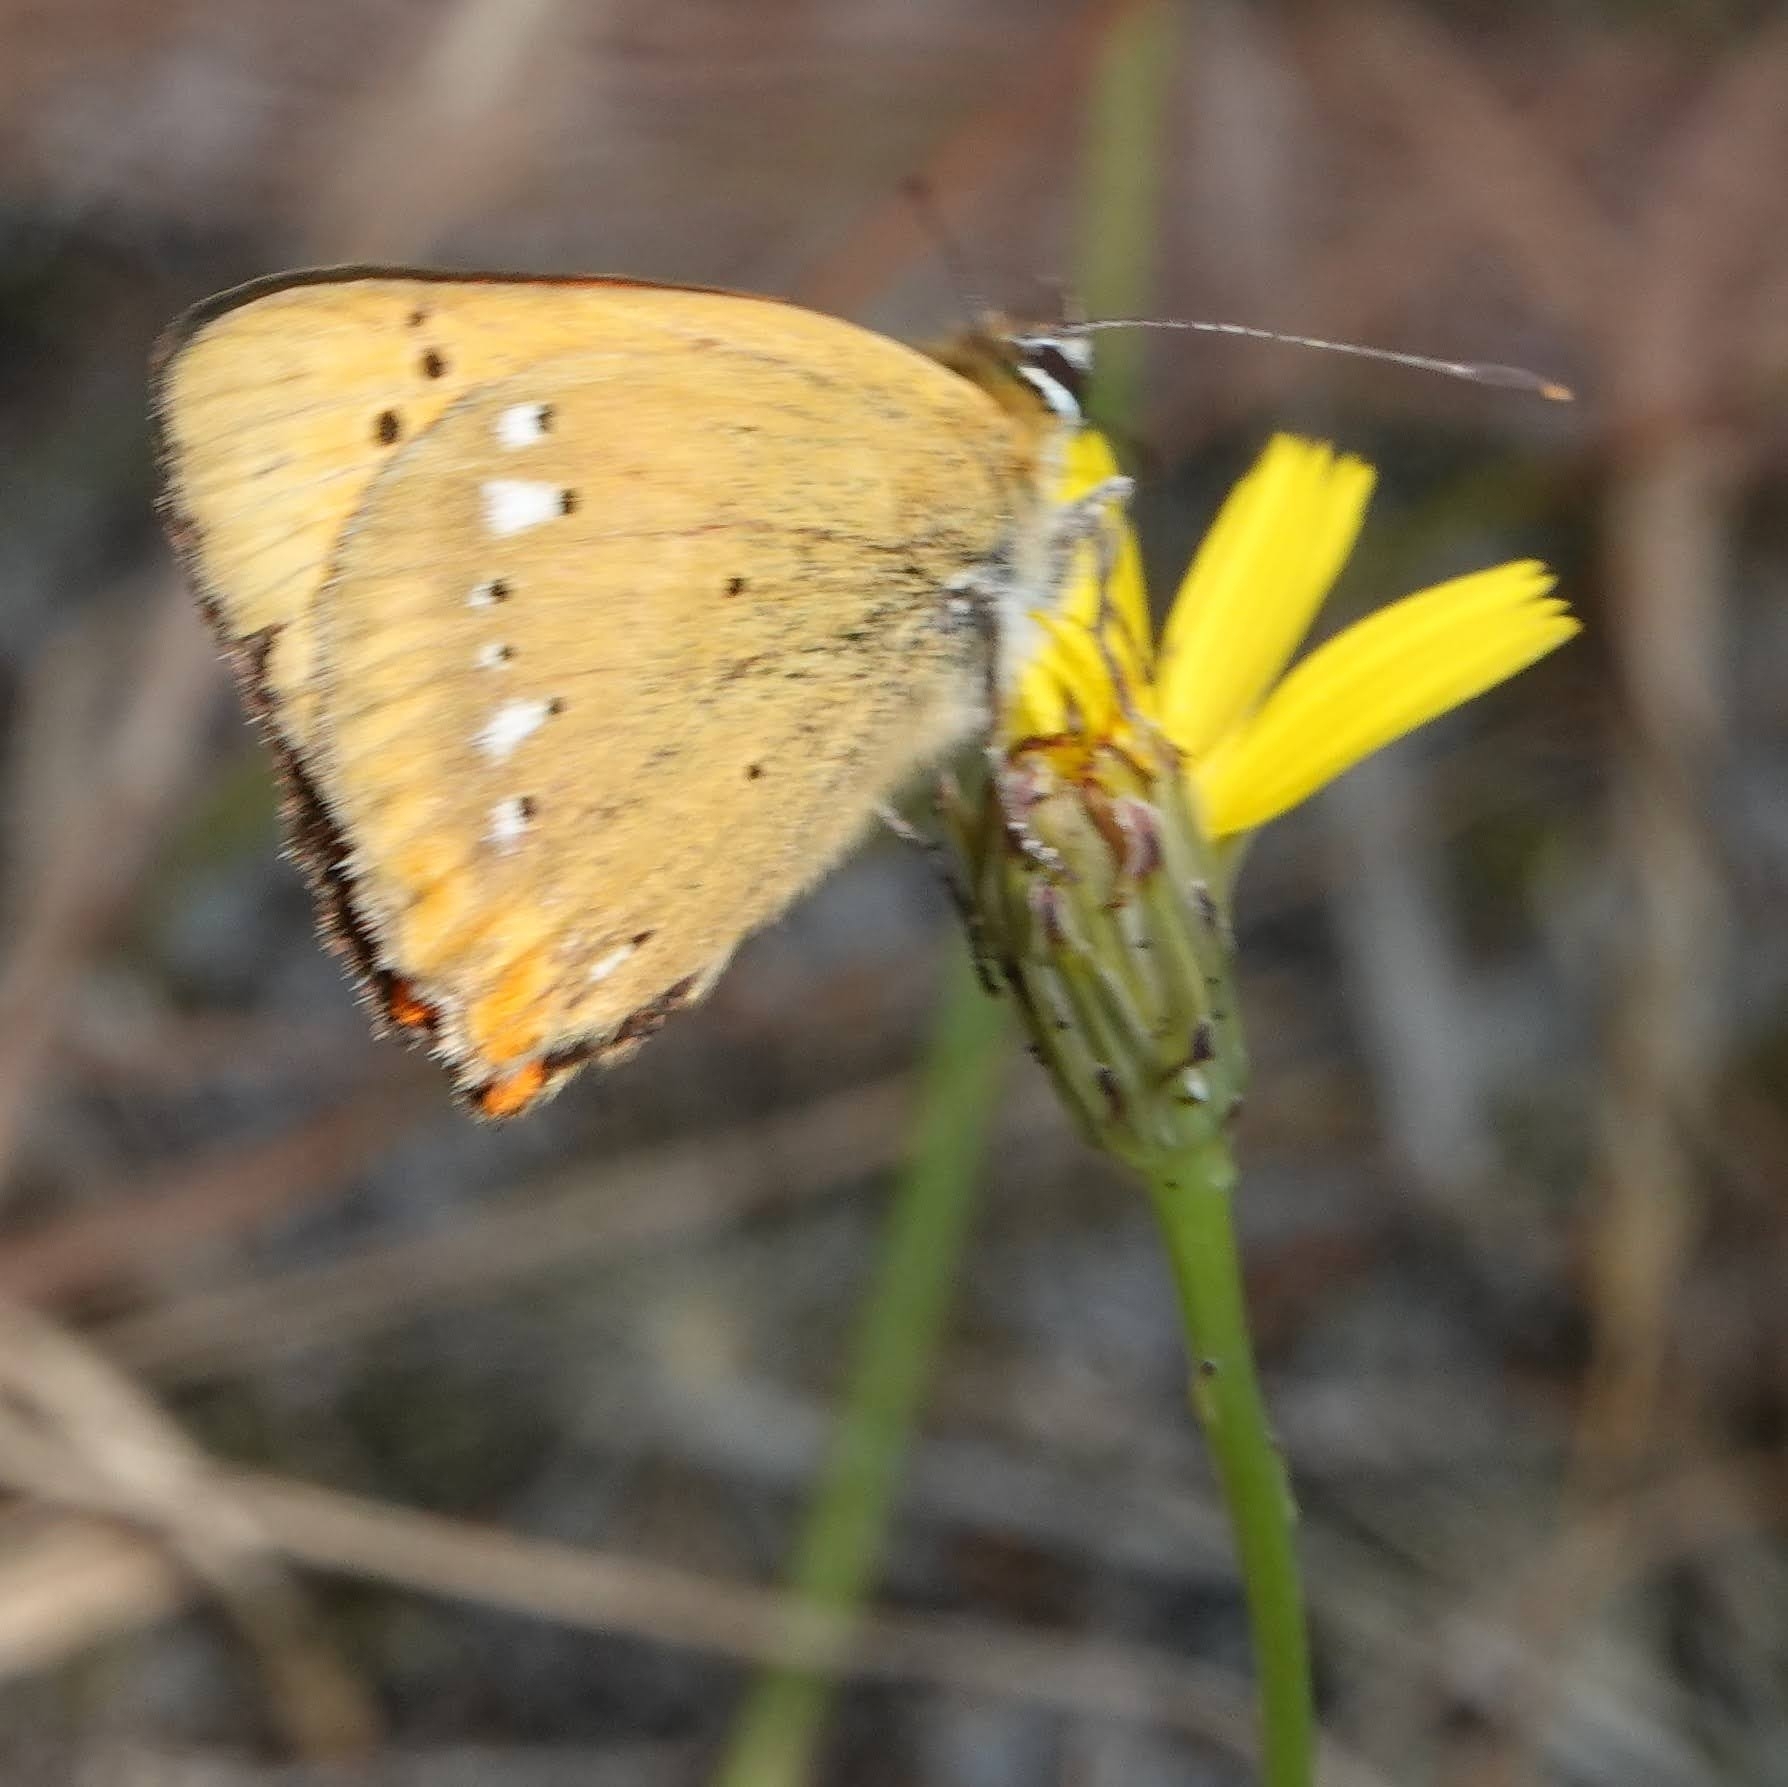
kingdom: Animalia
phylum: Arthropoda
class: Insecta
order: Lepidoptera
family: Lycaenidae
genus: Lycaena
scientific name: Lycaena virgaureae
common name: Scarce copper
